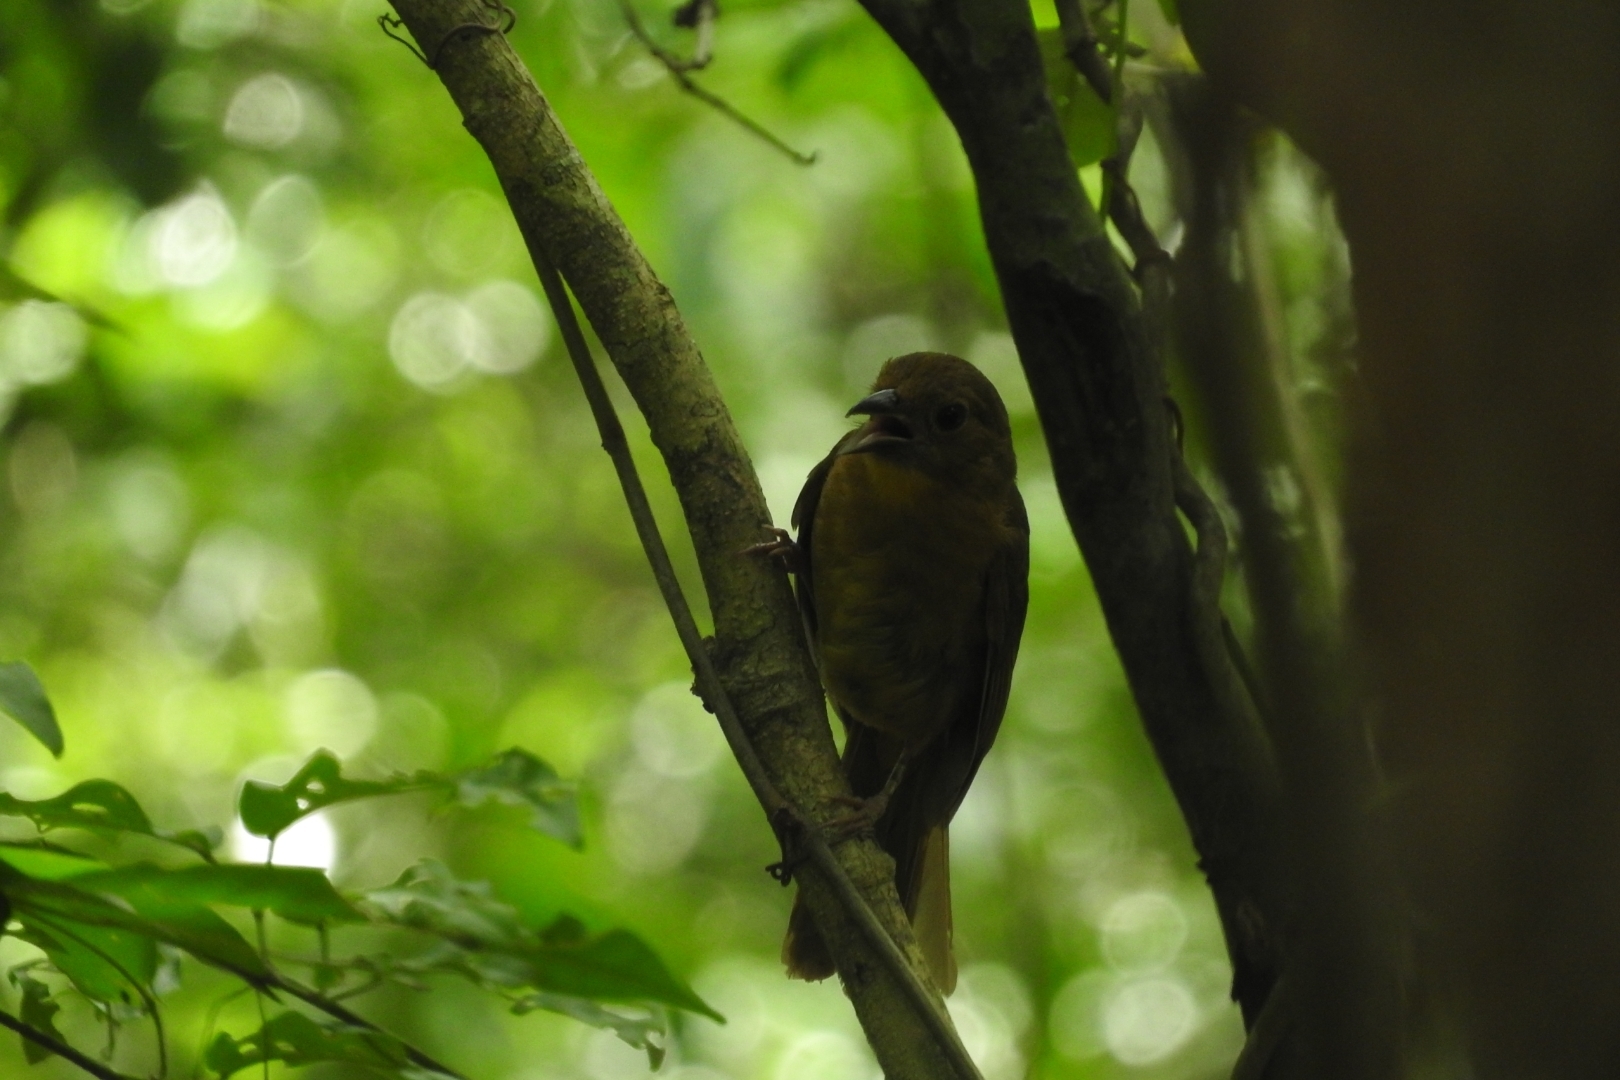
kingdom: Animalia
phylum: Chordata
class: Aves
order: Passeriformes
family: Cardinalidae
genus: Habia
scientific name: Habia fuscicauda
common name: Red-throated ant-tanager
